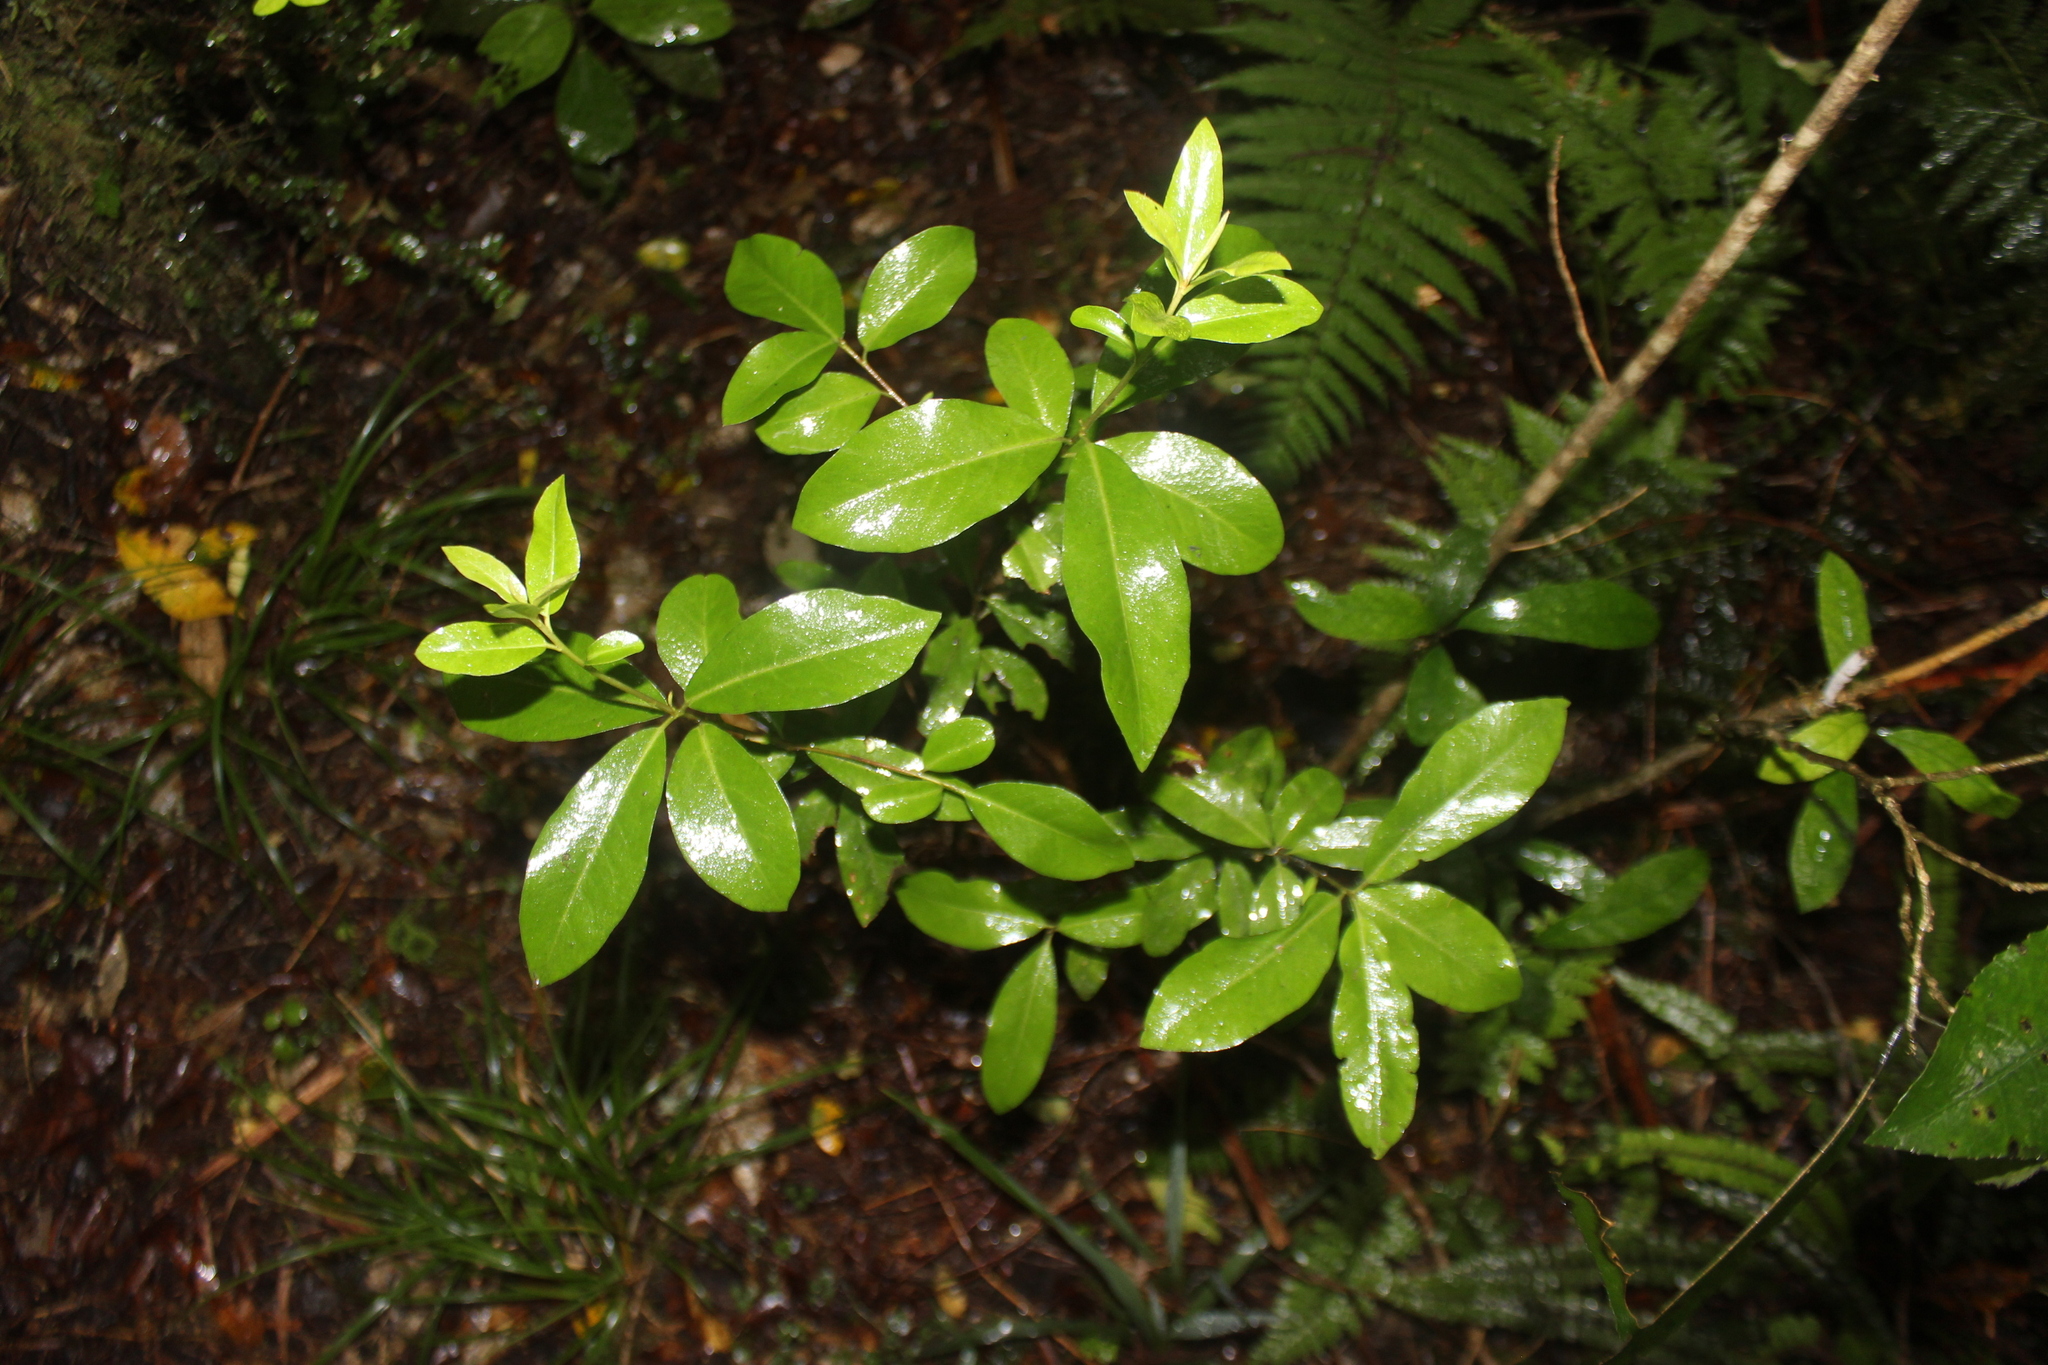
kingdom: Plantae
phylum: Tracheophyta
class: Magnoliopsida
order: Asterales
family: Alseuosmiaceae
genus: Alseuosmia
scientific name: Alseuosmia turneri
